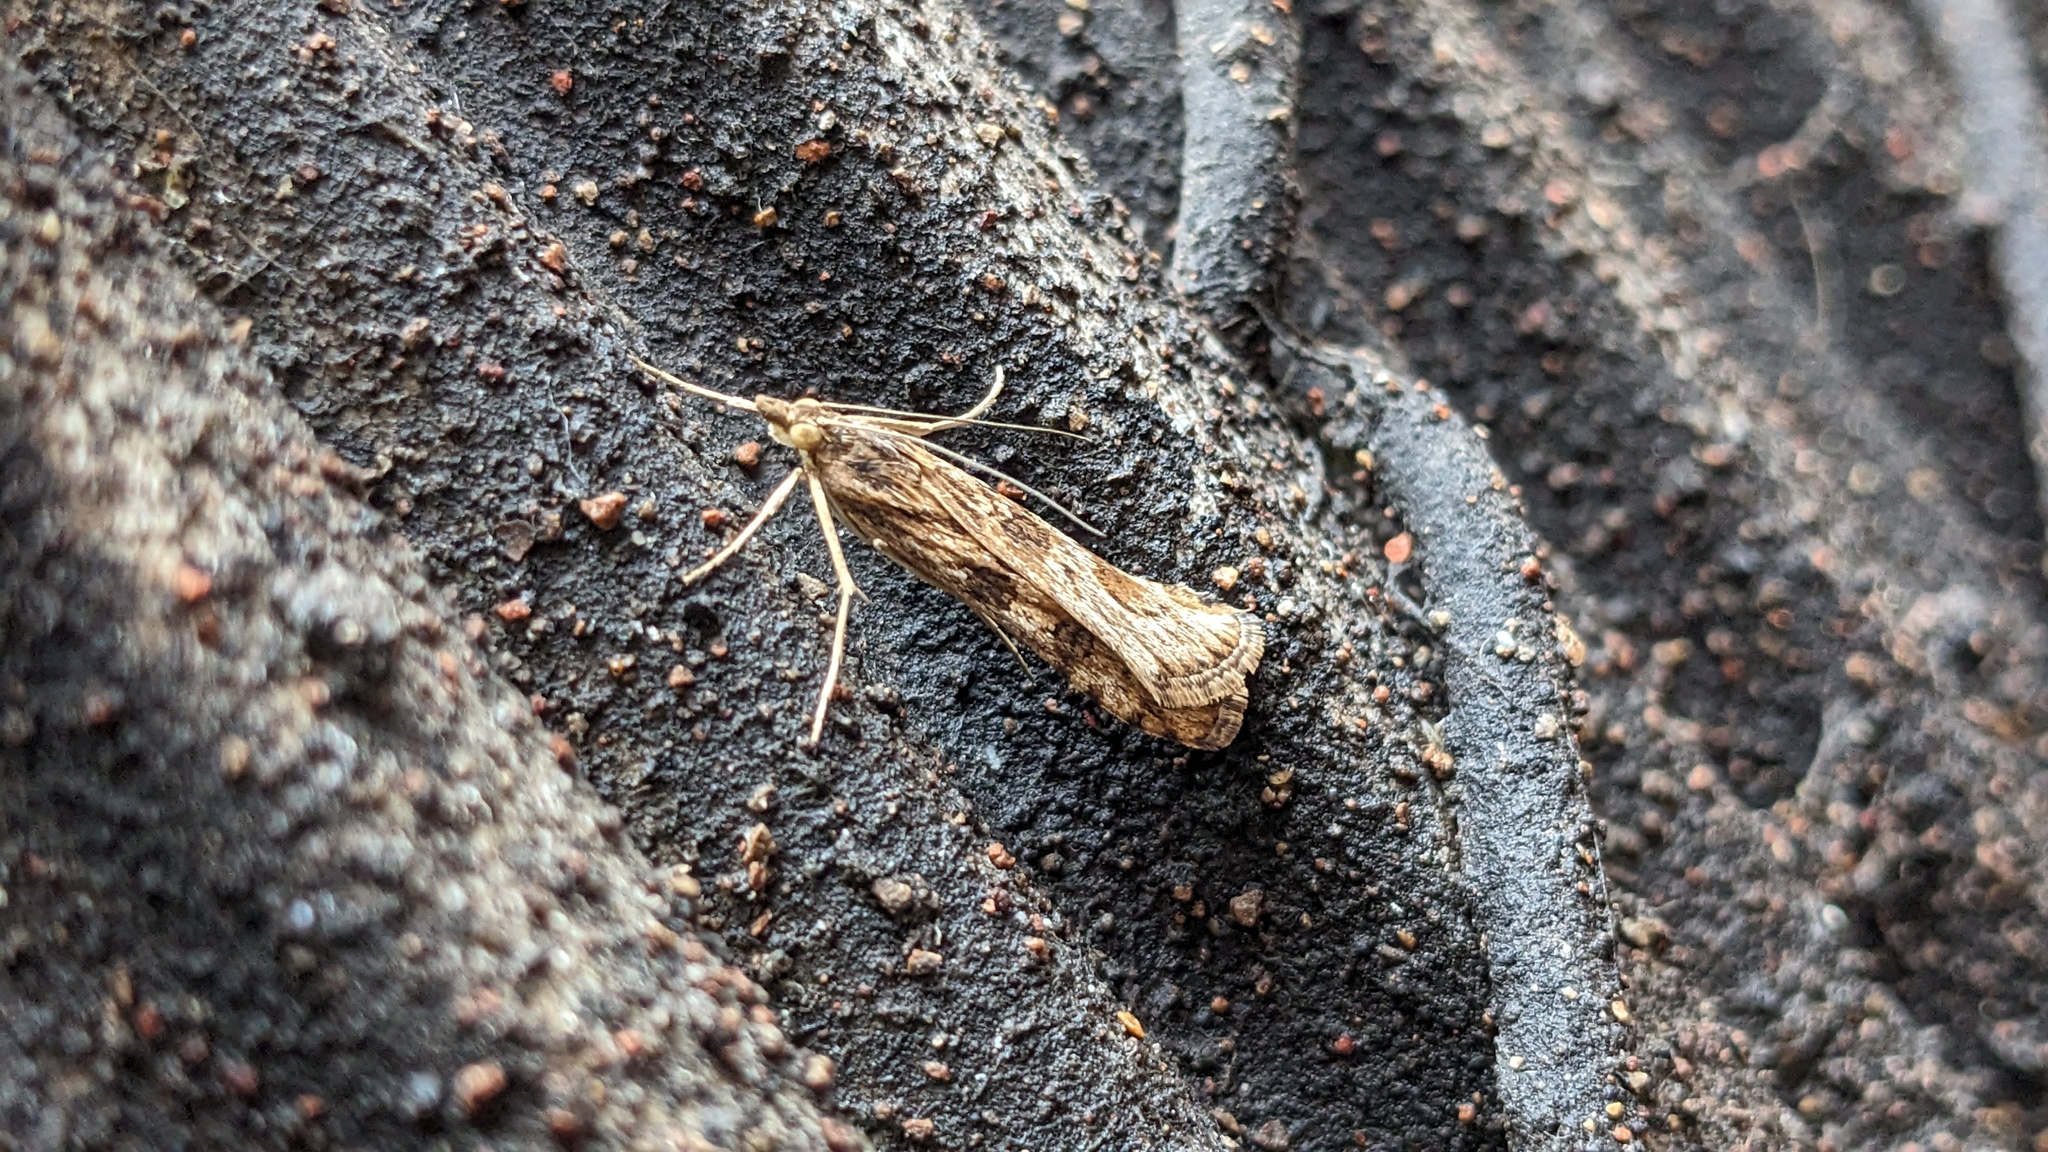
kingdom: Animalia
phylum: Arthropoda
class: Insecta
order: Lepidoptera
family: Crambidae
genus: Nomophila
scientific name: Nomophila nearctica
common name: American rush veneer
